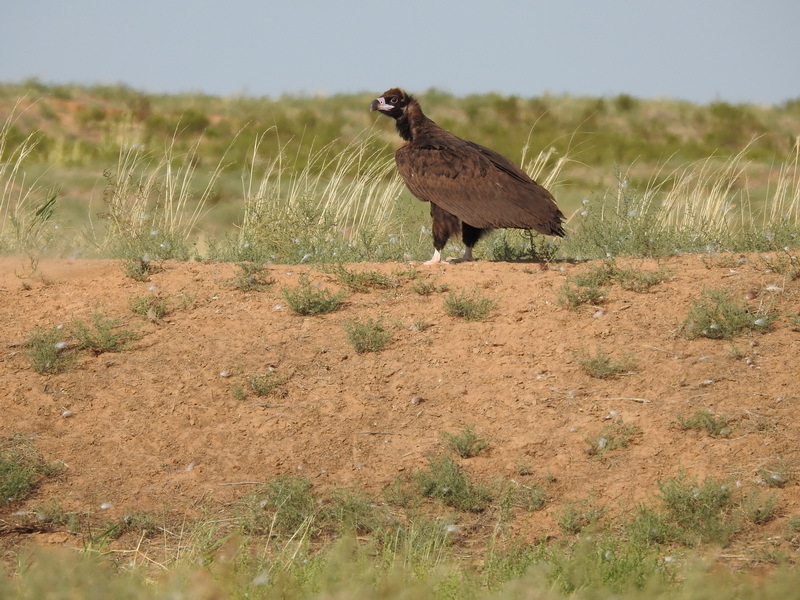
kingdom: Animalia
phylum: Chordata
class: Aves
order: Accipitriformes
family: Accipitridae
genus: Aegypius
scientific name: Aegypius monachus
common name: Cinereous vulture
